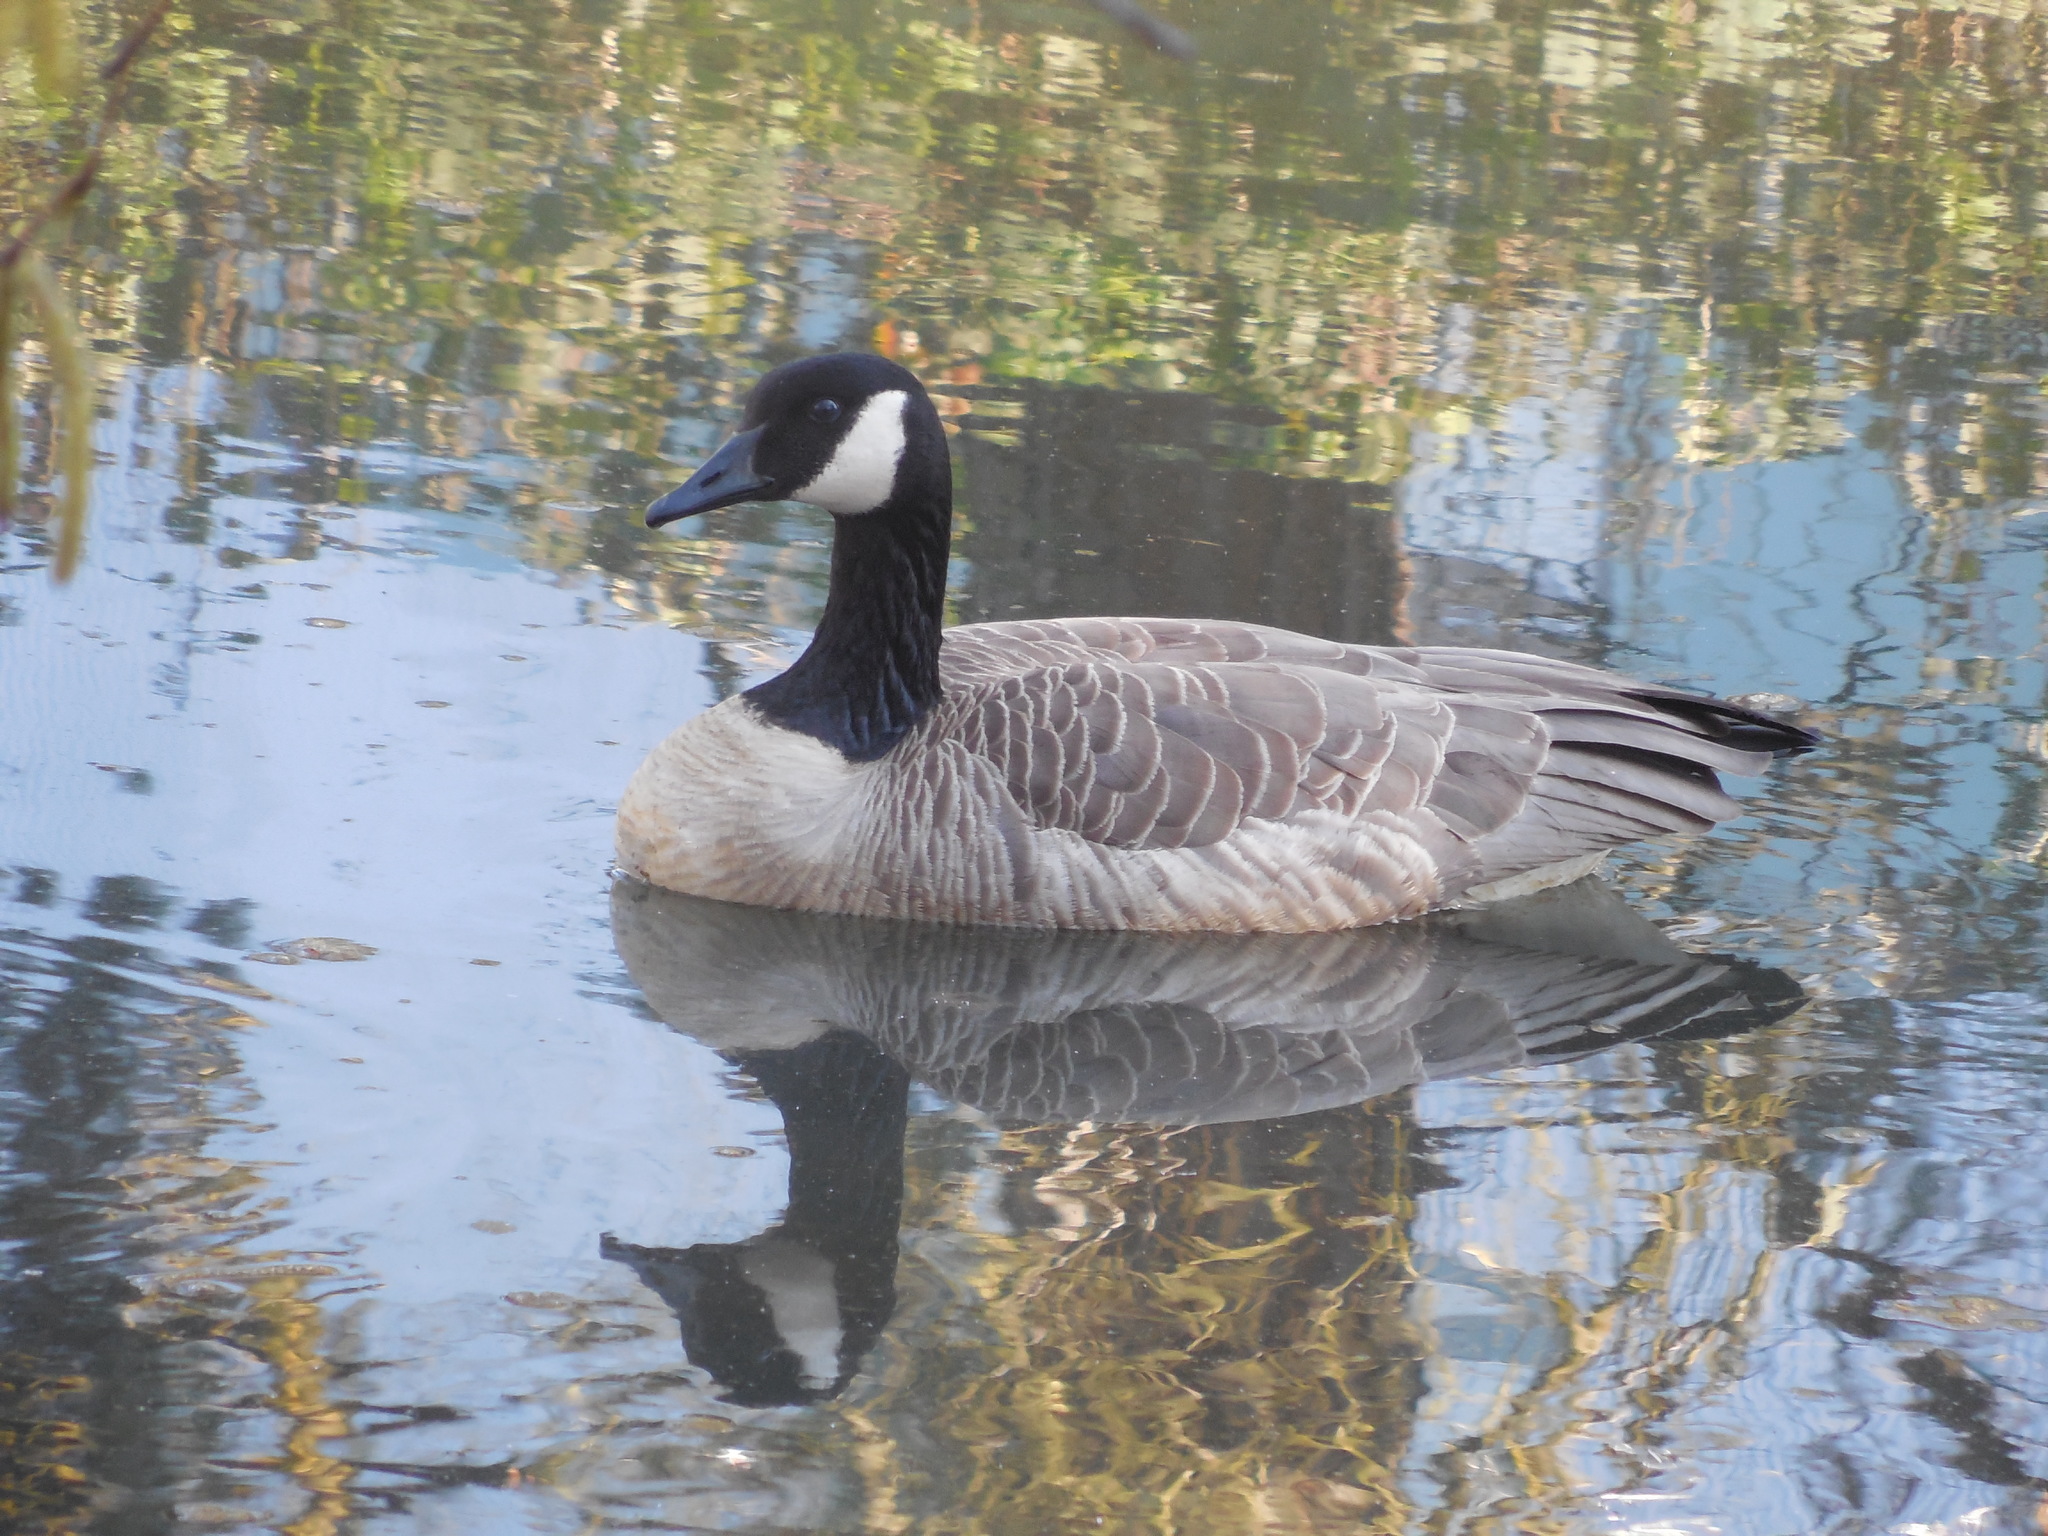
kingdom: Animalia
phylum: Chordata
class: Aves
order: Anseriformes
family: Anatidae
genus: Branta
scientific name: Branta canadensis
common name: Canada goose
